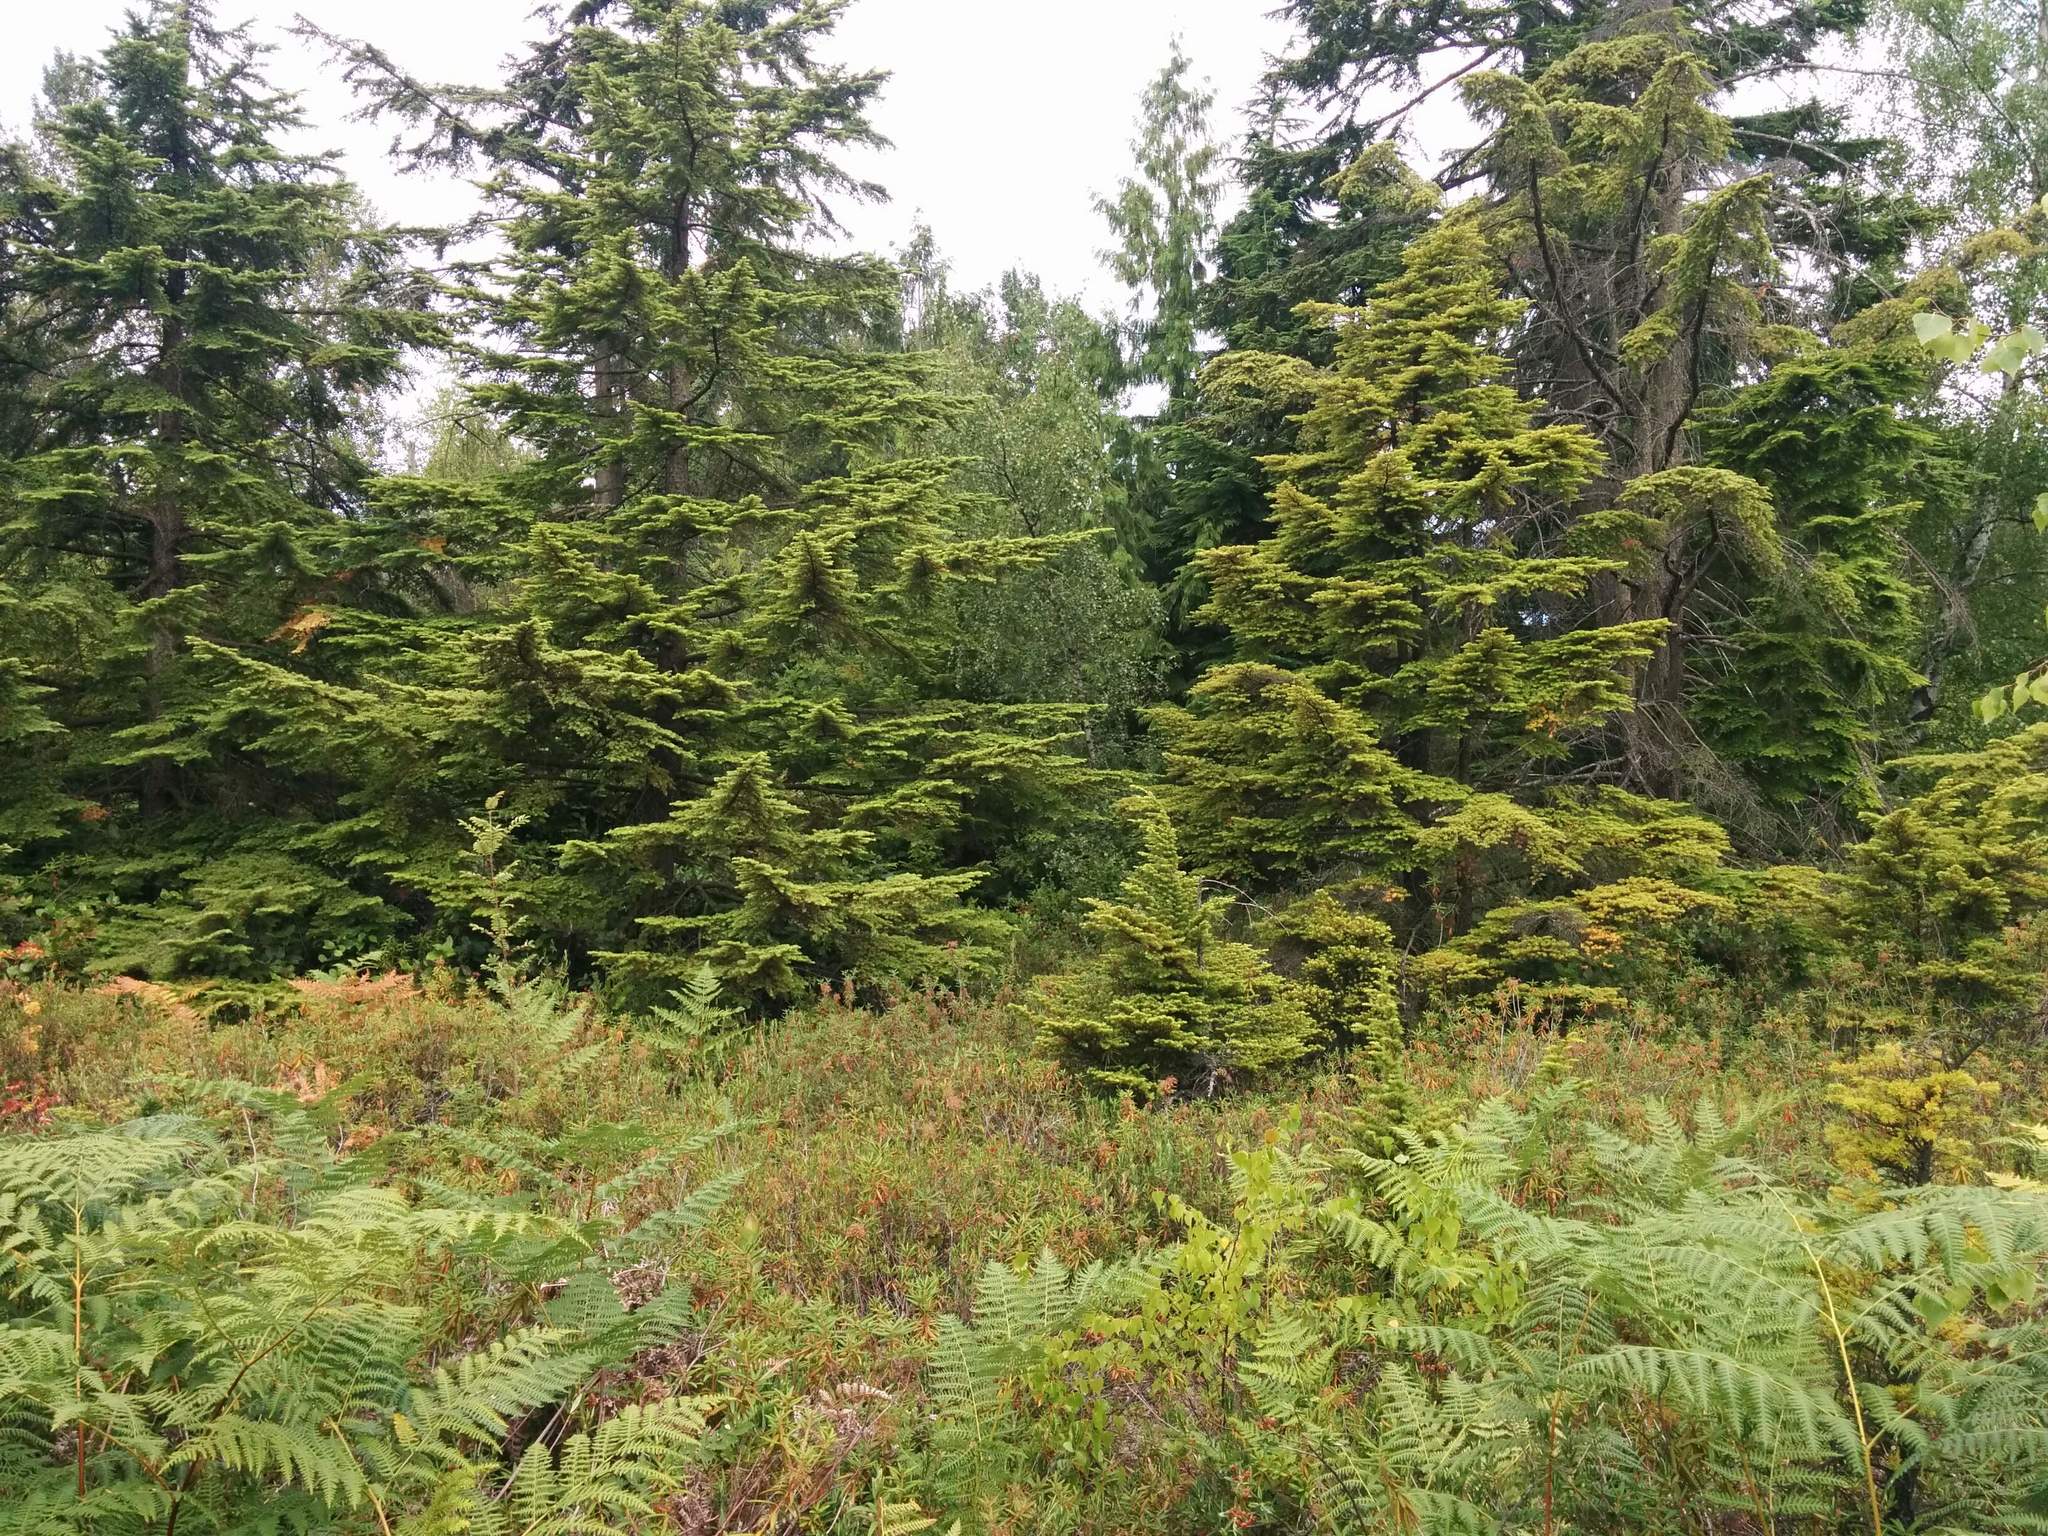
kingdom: Plantae
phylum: Tracheophyta
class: Pinopsida
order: Pinales
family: Pinaceae
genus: Tsuga
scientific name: Tsuga heterophylla
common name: Western hemlock
